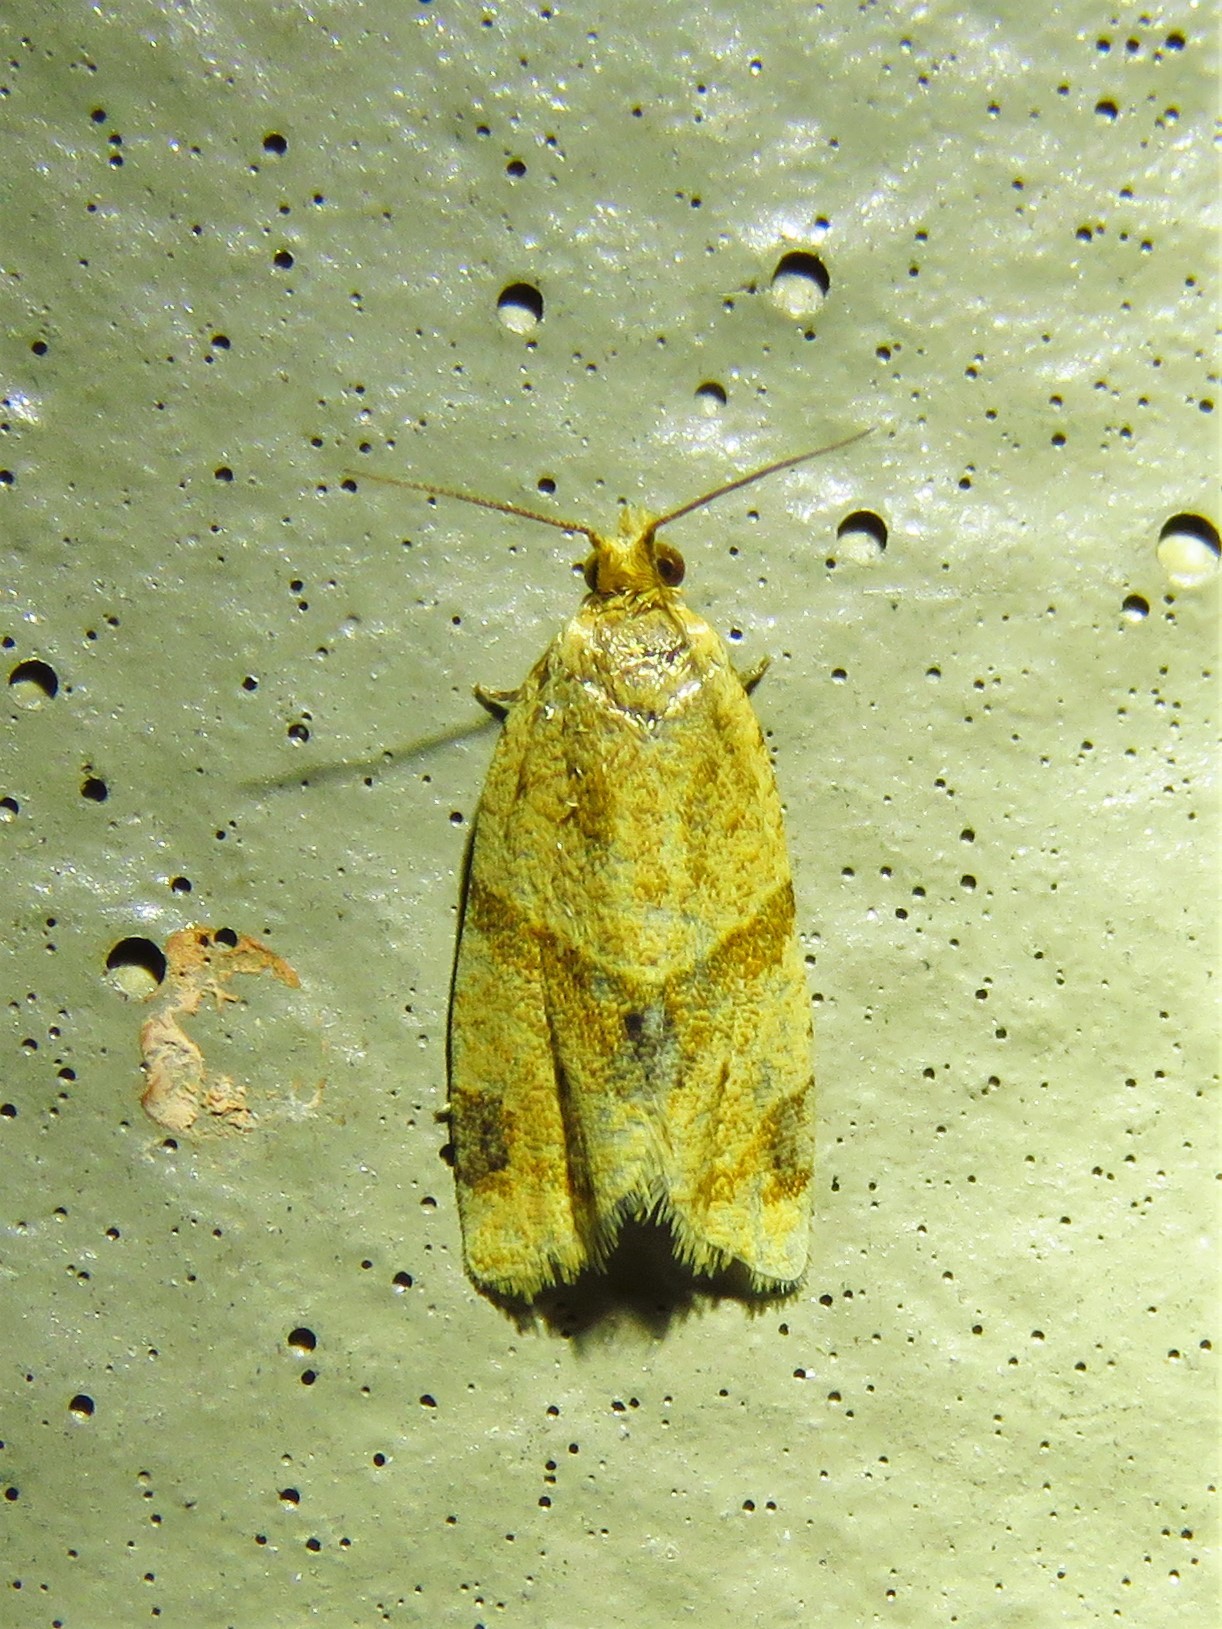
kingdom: Animalia
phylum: Arthropoda
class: Insecta
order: Lepidoptera
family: Tortricidae
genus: Clepsis
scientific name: Clepsis peritana
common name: Garden tortrix
